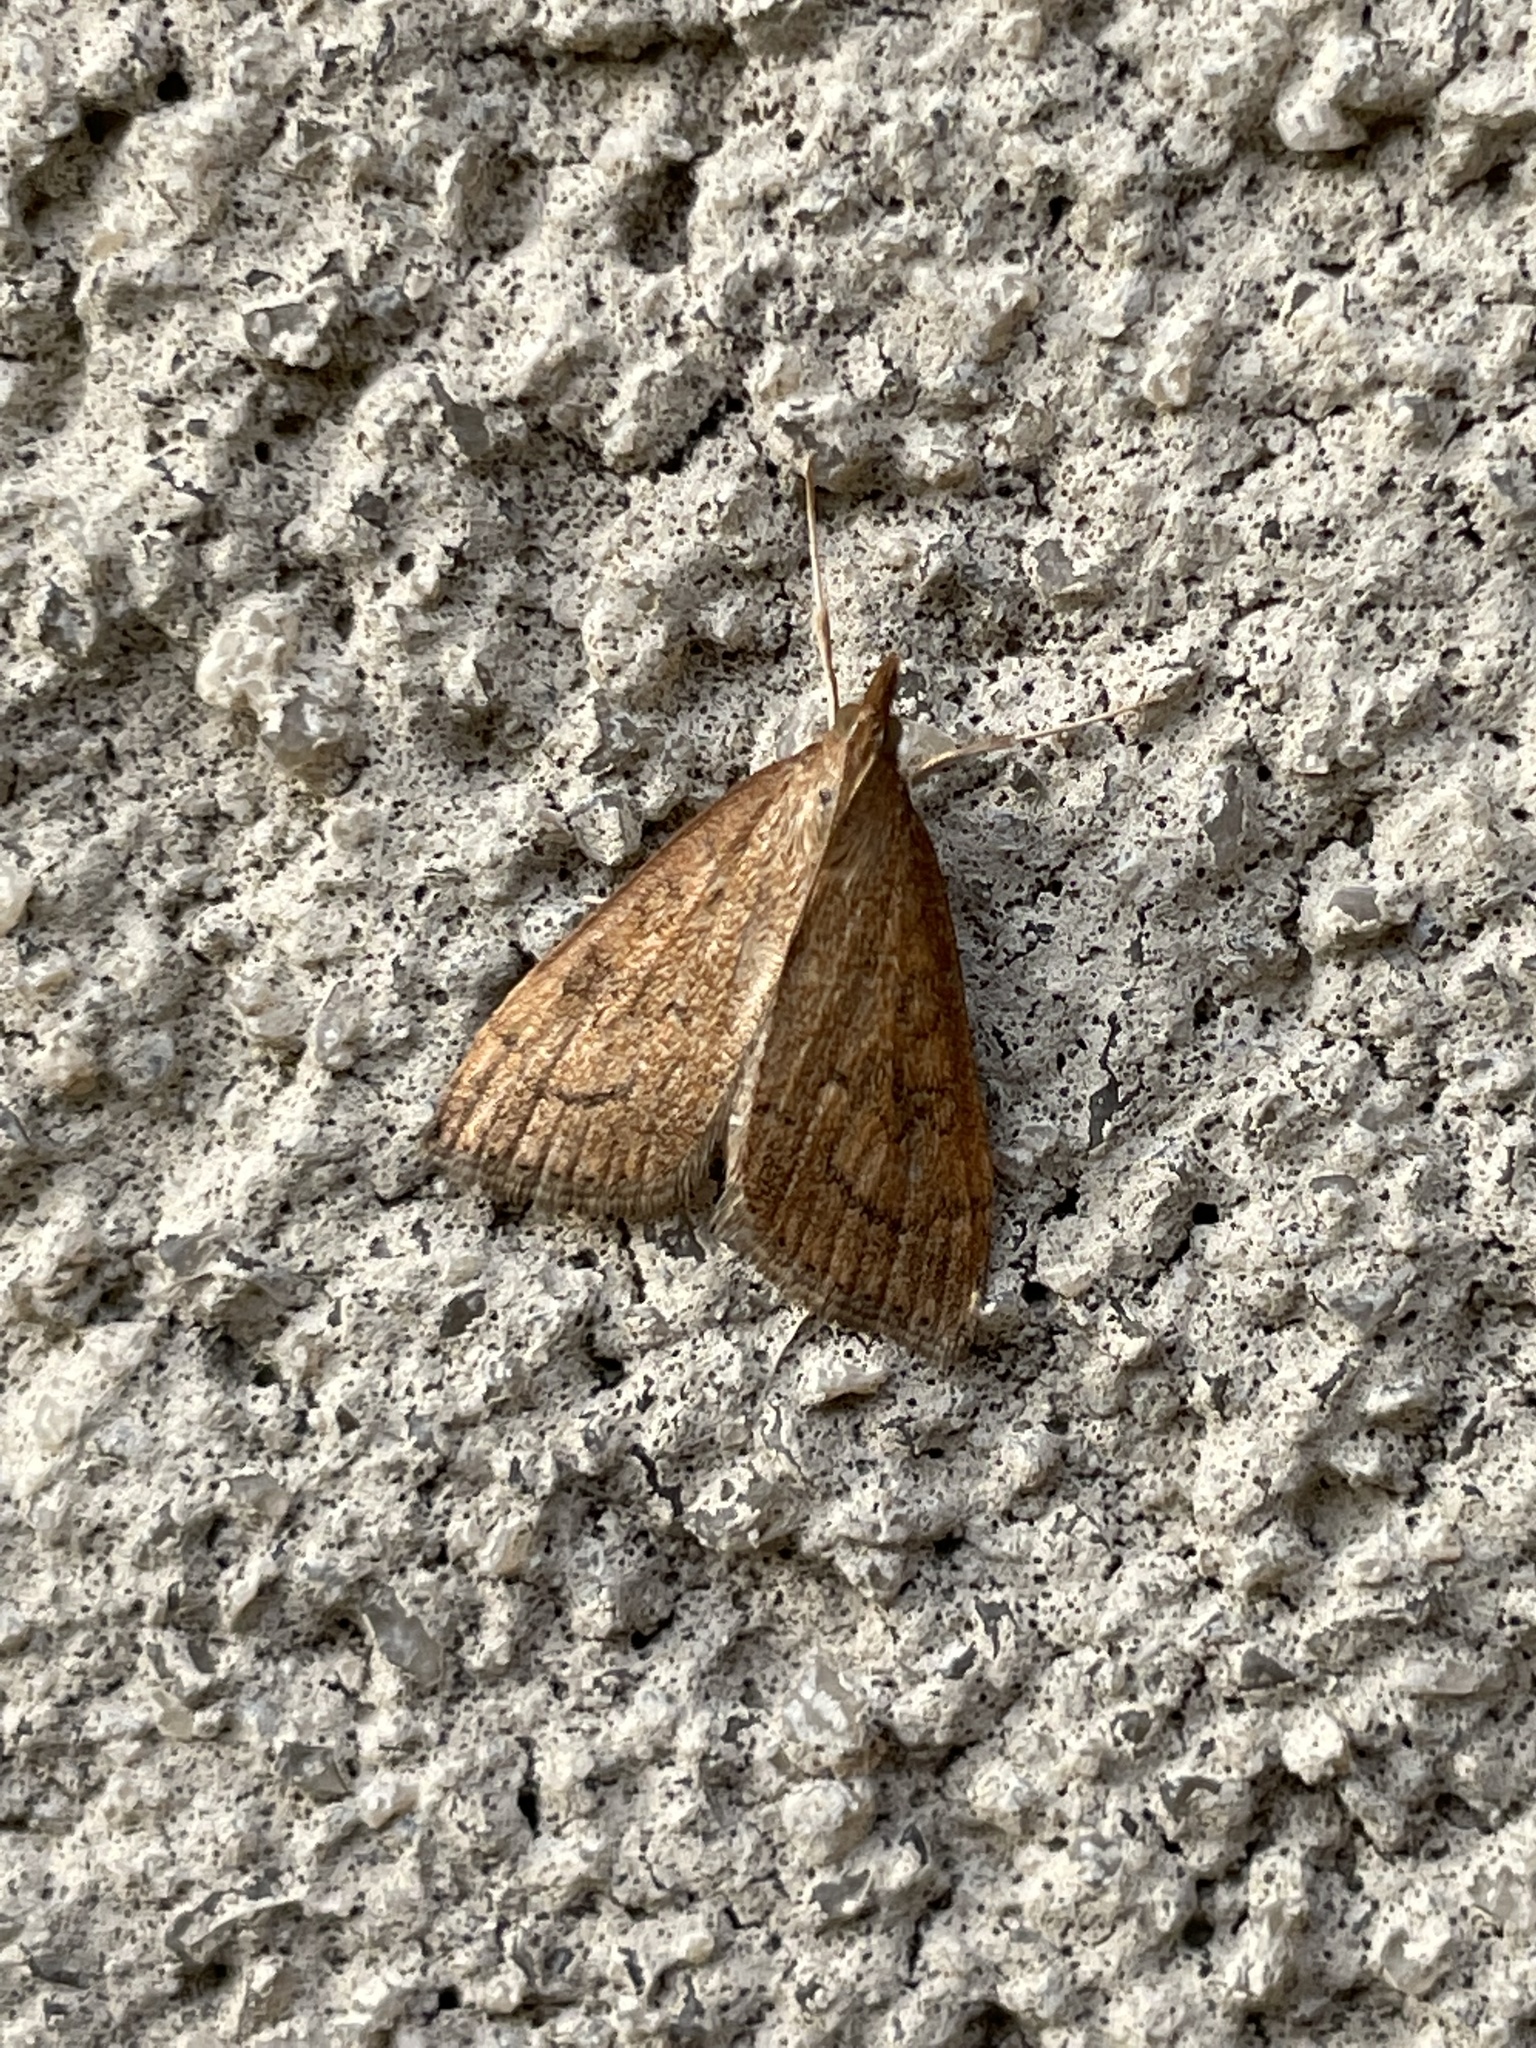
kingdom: Animalia
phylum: Arthropoda
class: Insecta
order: Lepidoptera
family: Crambidae
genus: Udea
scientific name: Udea rubigalis
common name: Celery leaftier moth
